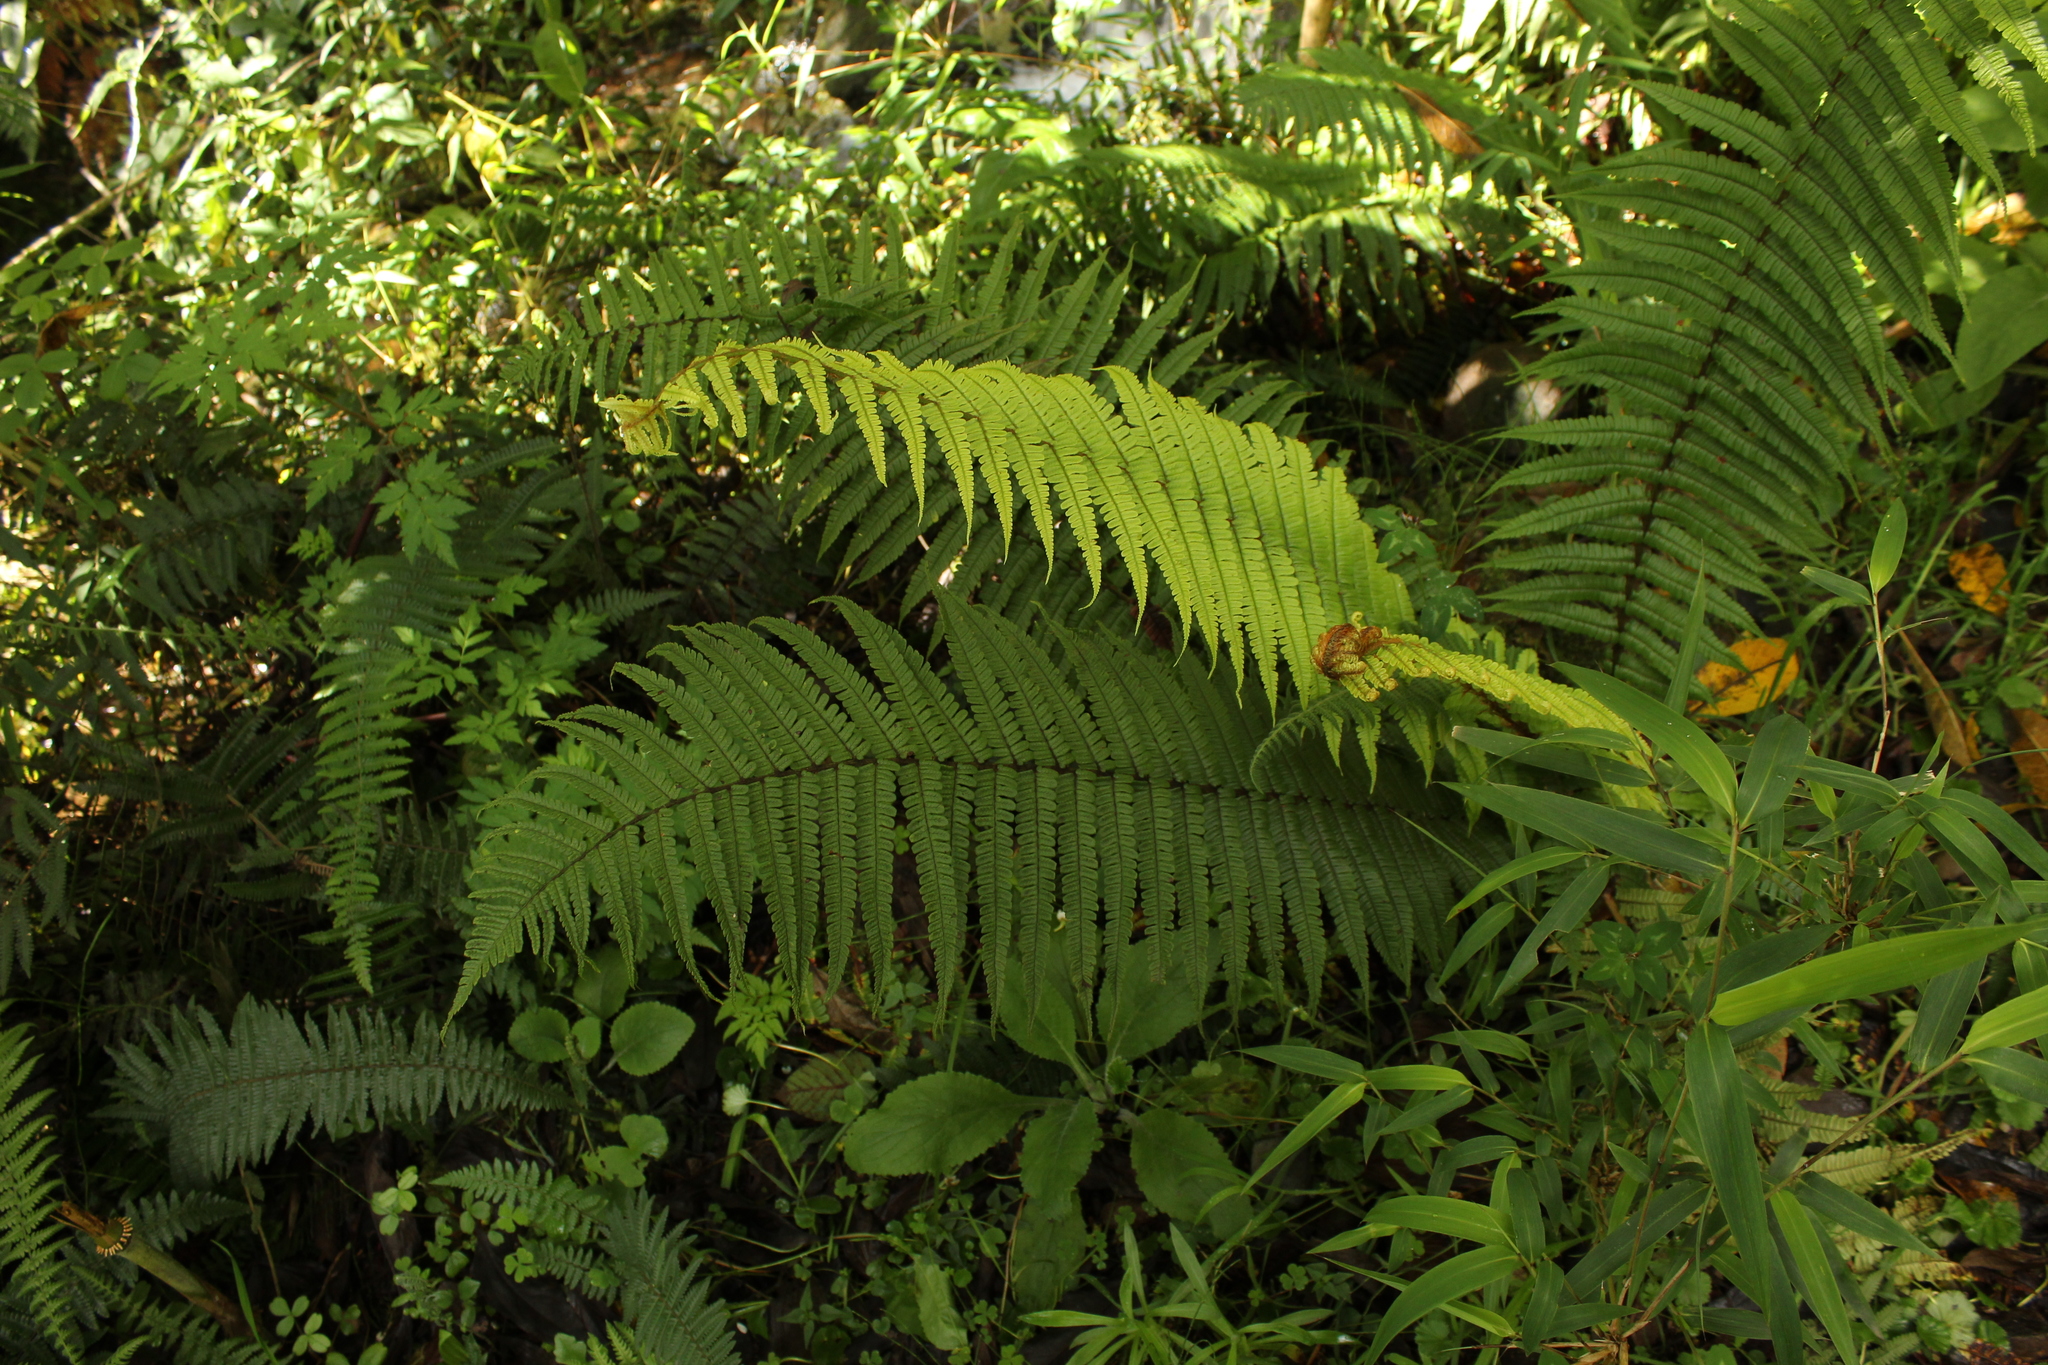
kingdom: Plantae
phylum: Tracheophyta
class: Polypodiopsida
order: Polypodiales
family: Dryopteridaceae
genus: Dryopteris
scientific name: Dryopteris wallichiana
